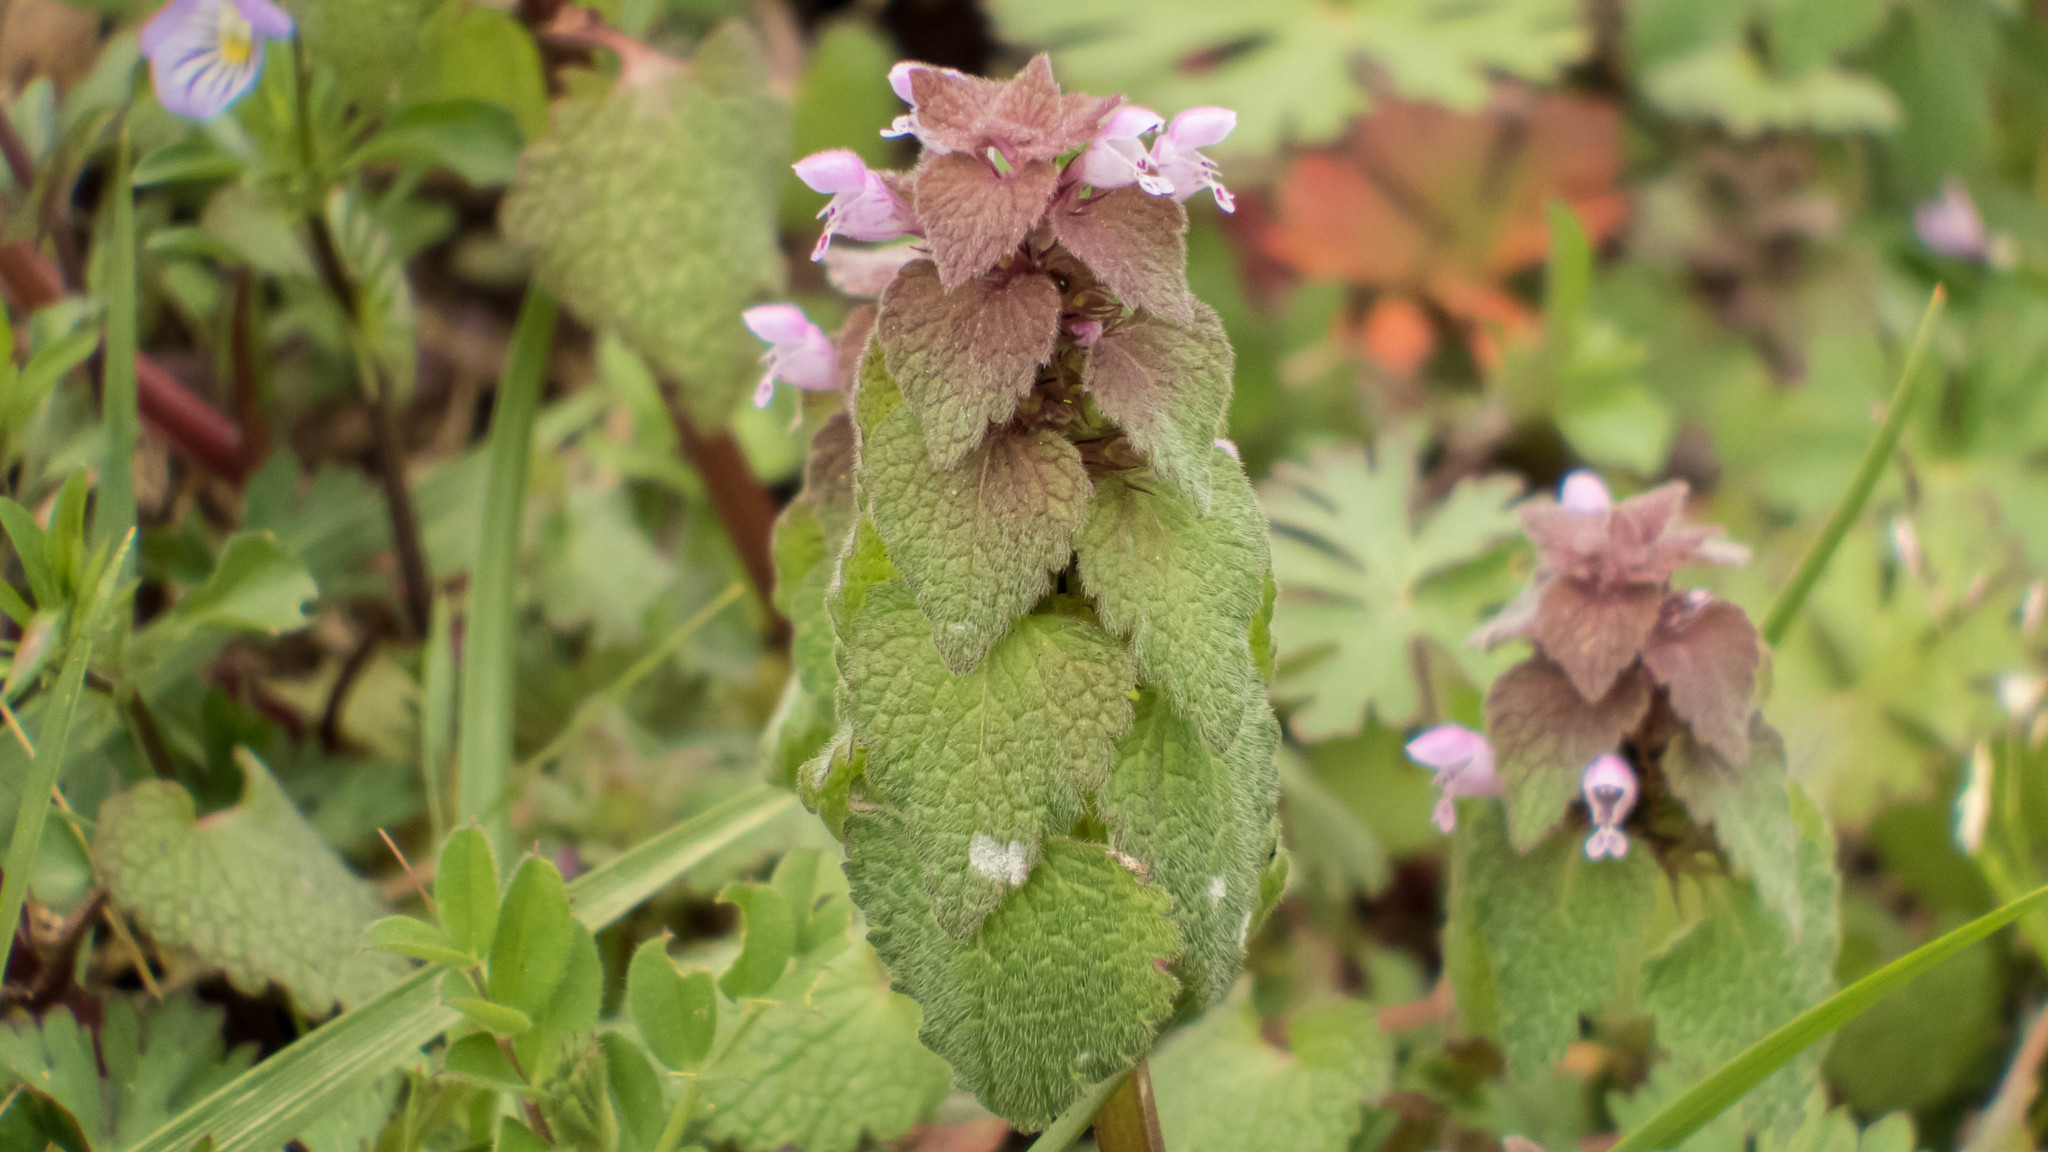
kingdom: Plantae
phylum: Tracheophyta
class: Magnoliopsida
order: Lamiales
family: Lamiaceae
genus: Lamium
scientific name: Lamium purpureum
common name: Red dead-nettle
